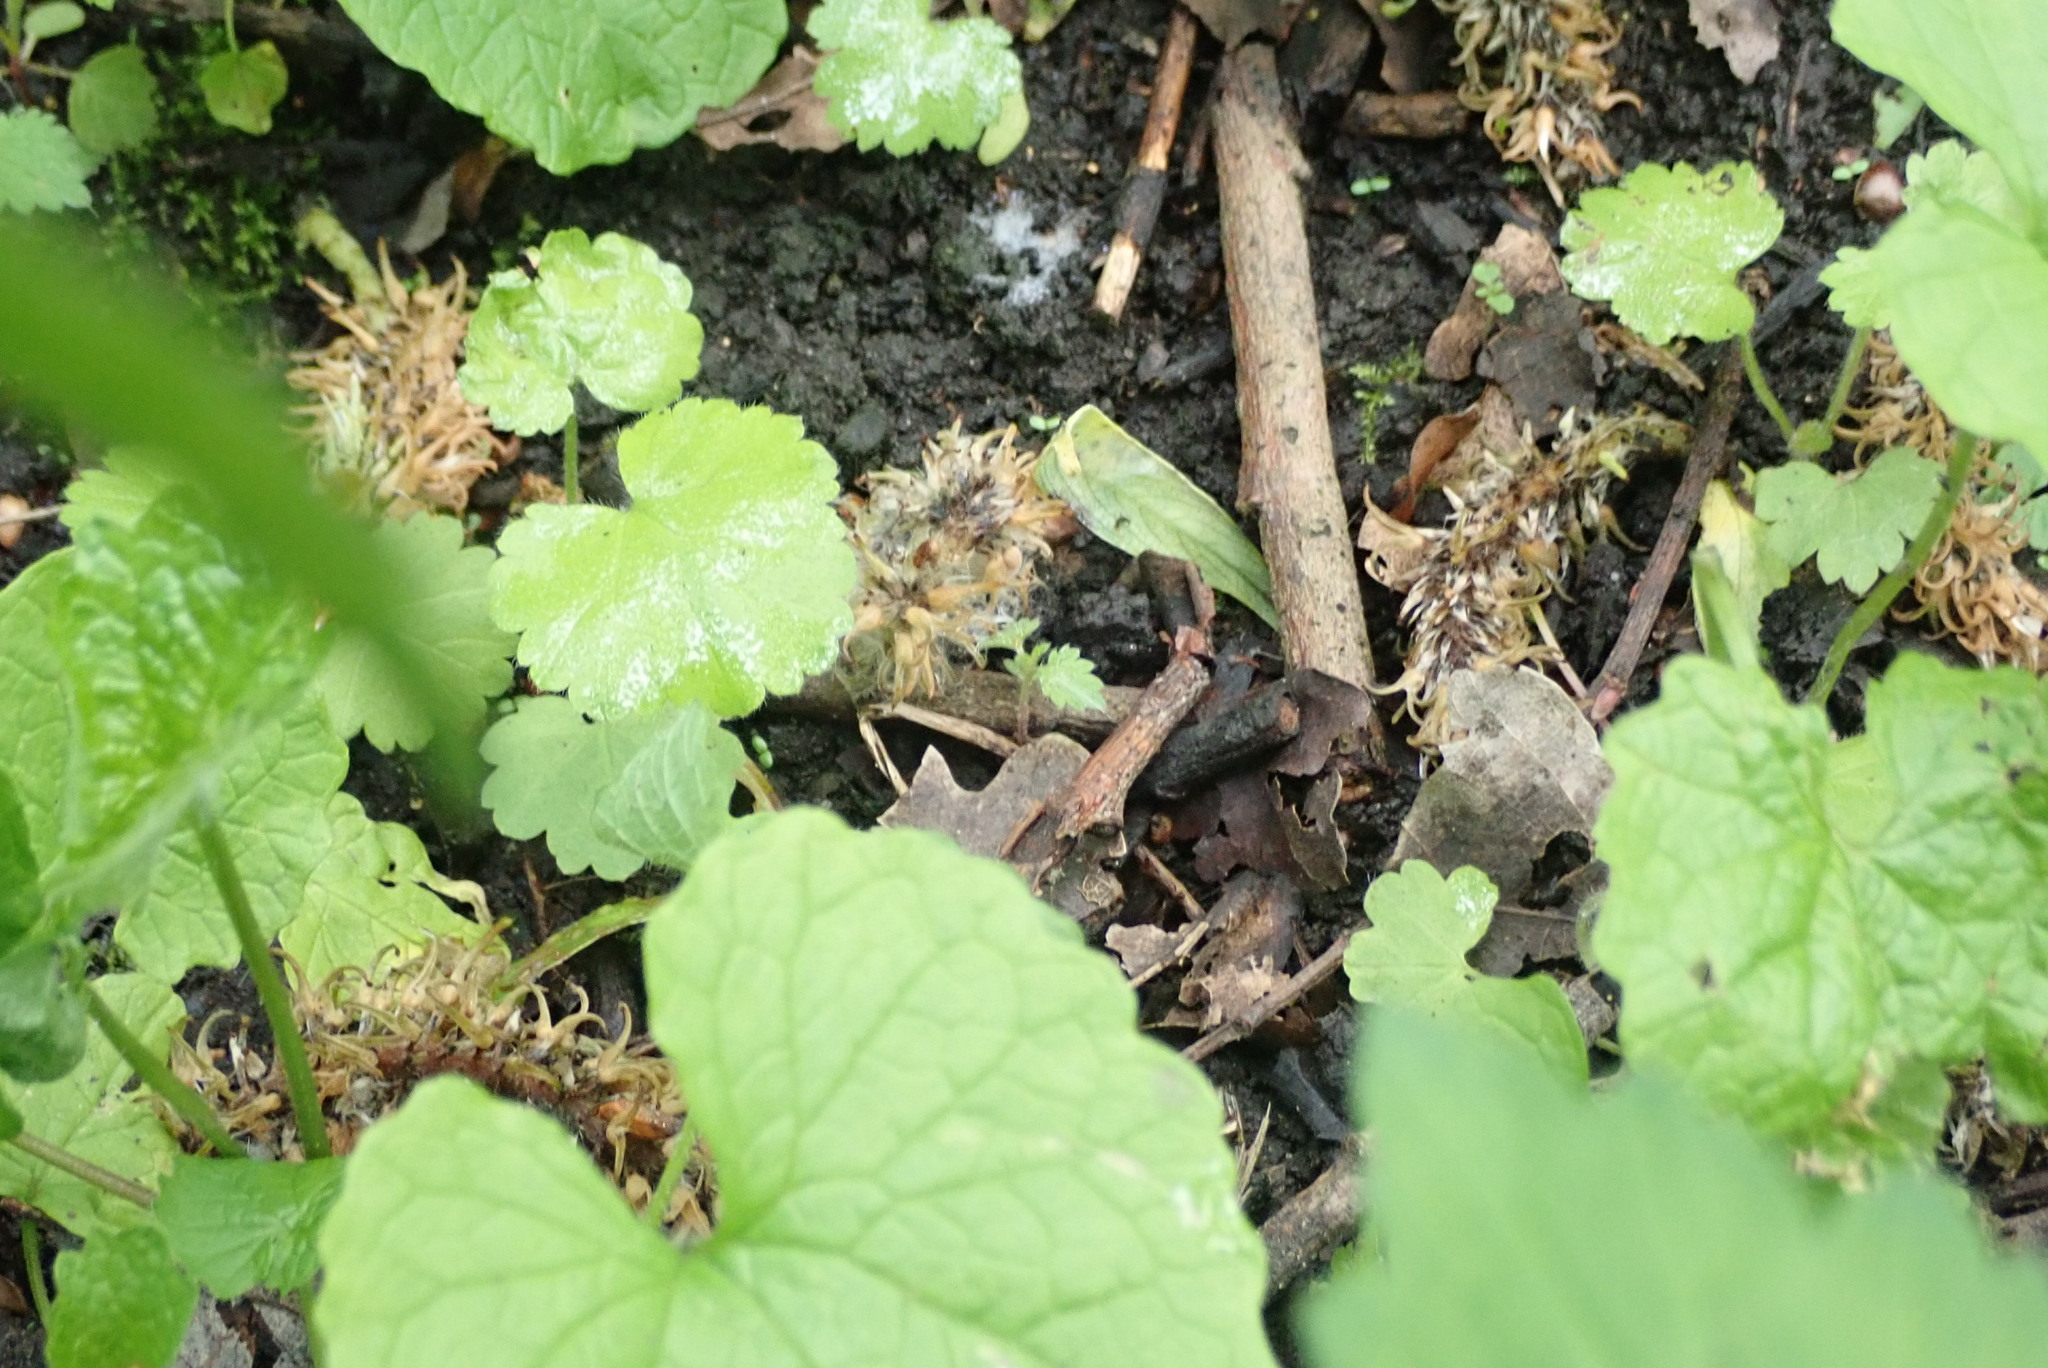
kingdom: Plantae
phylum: Tracheophyta
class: Magnoliopsida
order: Brassicales
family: Brassicaceae
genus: Alliaria
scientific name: Alliaria petiolata
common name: Garlic mustard
